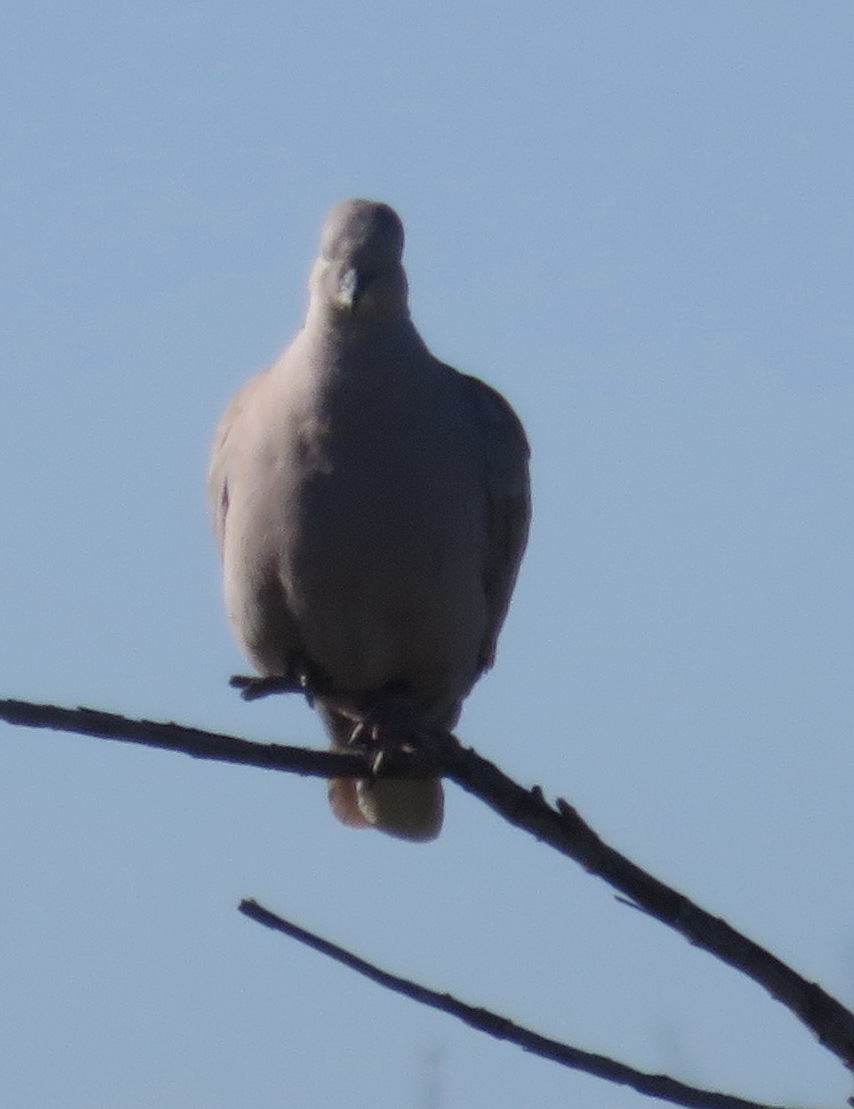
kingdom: Animalia
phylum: Chordata
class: Aves
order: Columbiformes
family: Columbidae
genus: Streptopelia
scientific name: Streptopelia decaocto
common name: Eurasian collared dove
